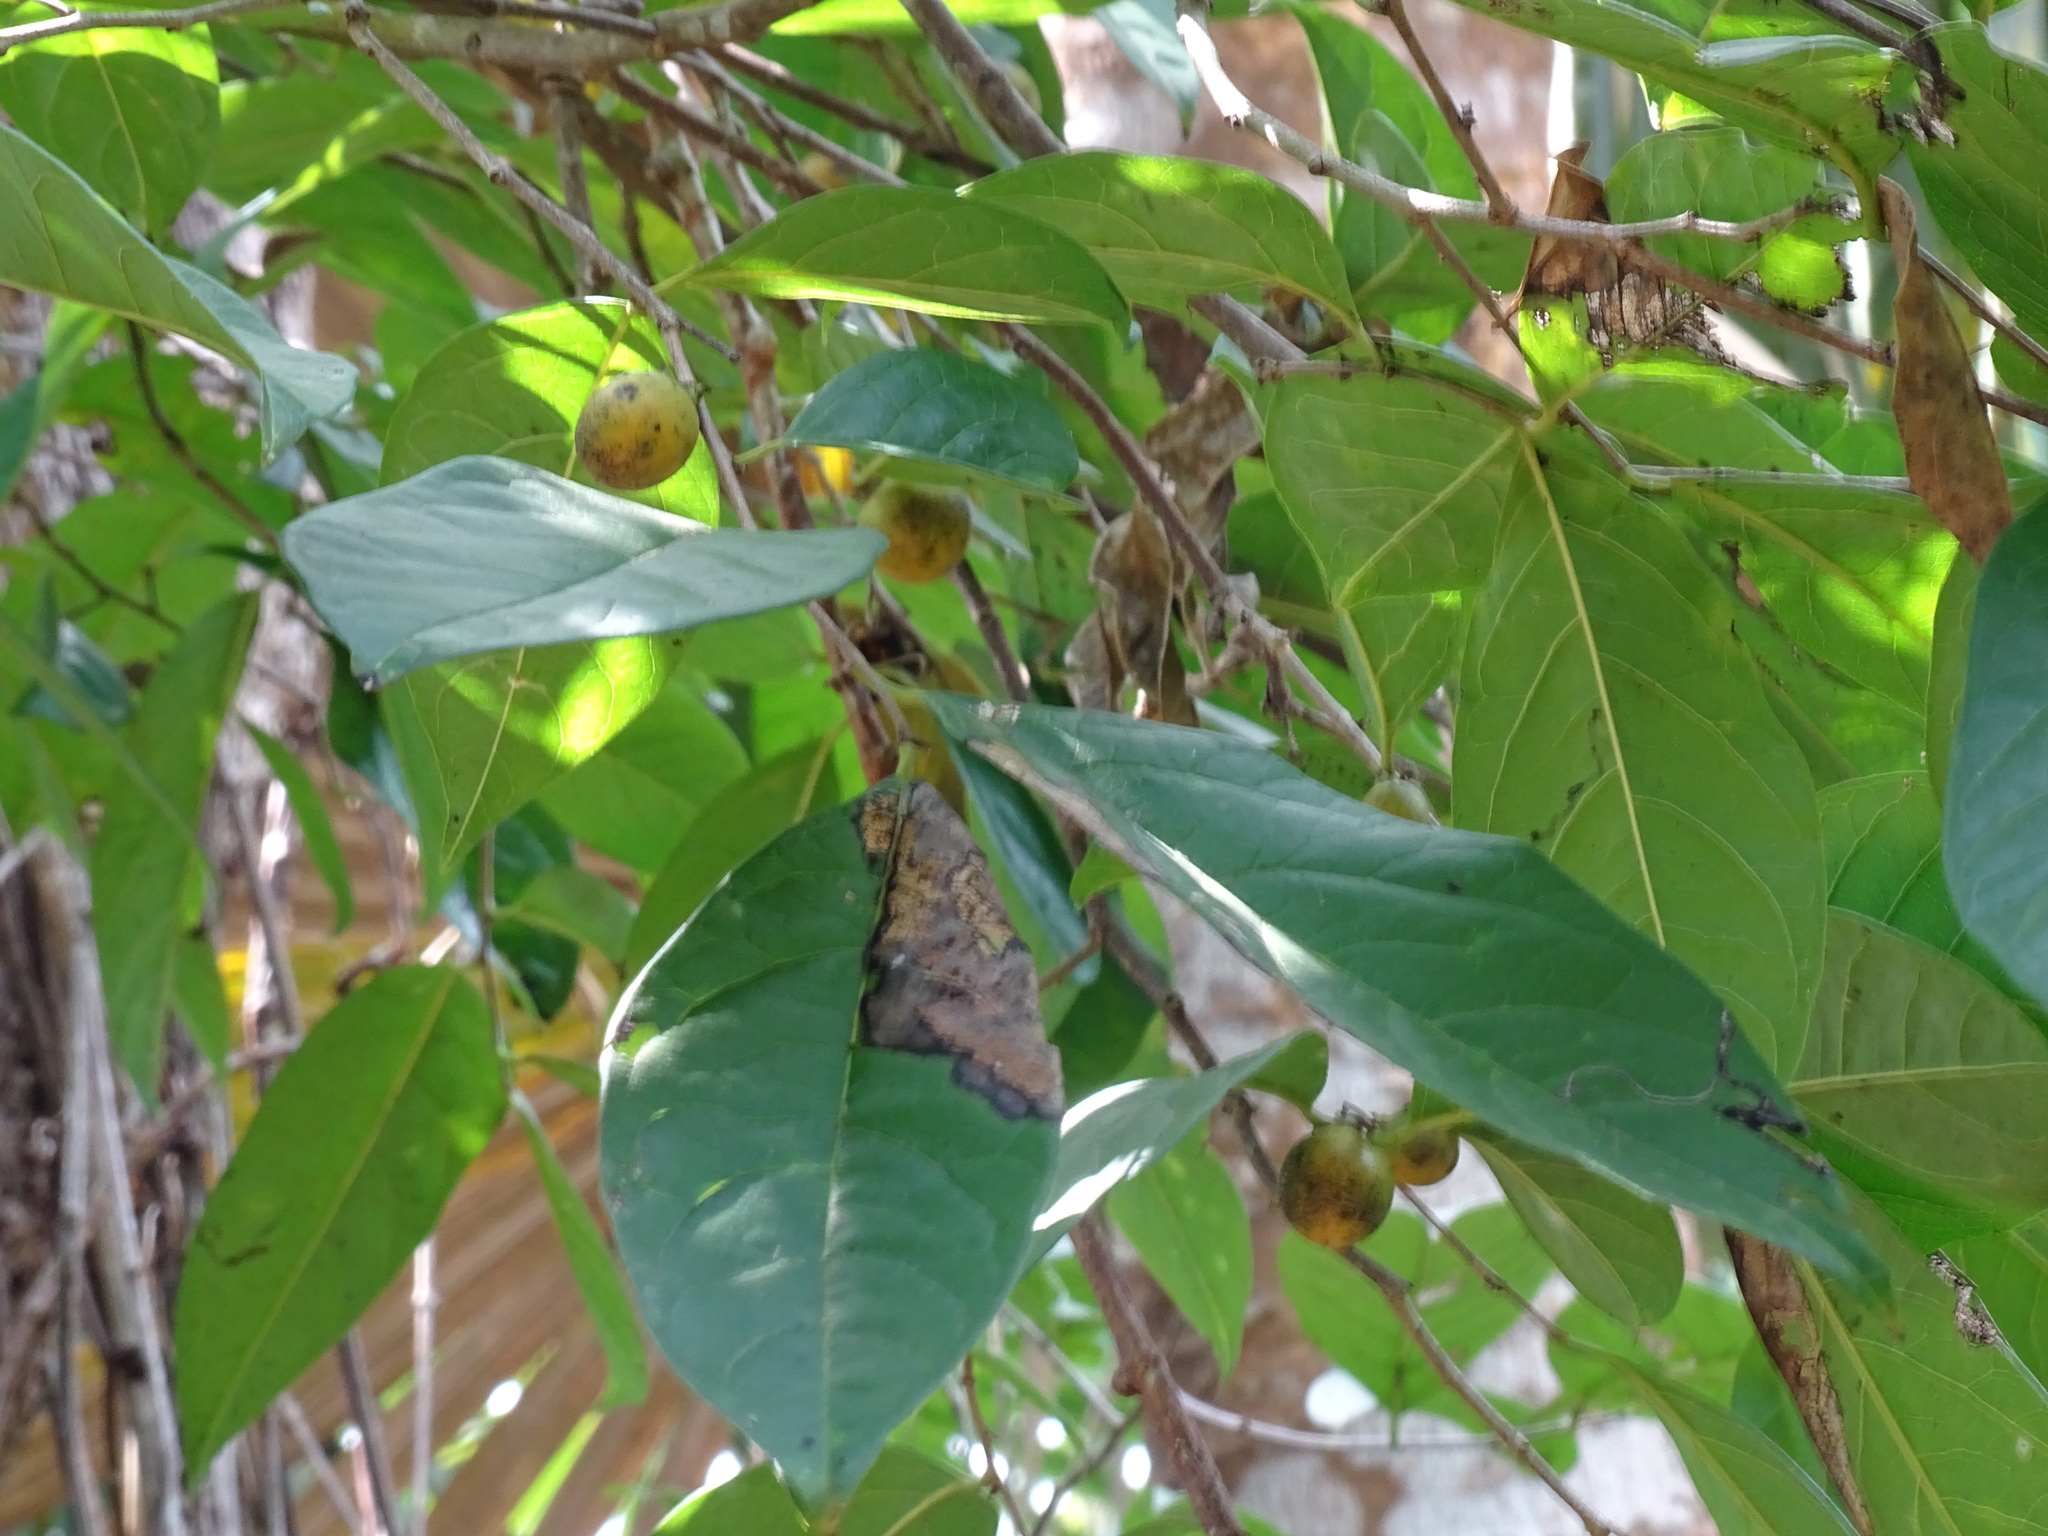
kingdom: Plantae
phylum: Tracheophyta
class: Magnoliopsida
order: Ericales
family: Ebenaceae
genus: Diospyros
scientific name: Diospyros yatesiana
